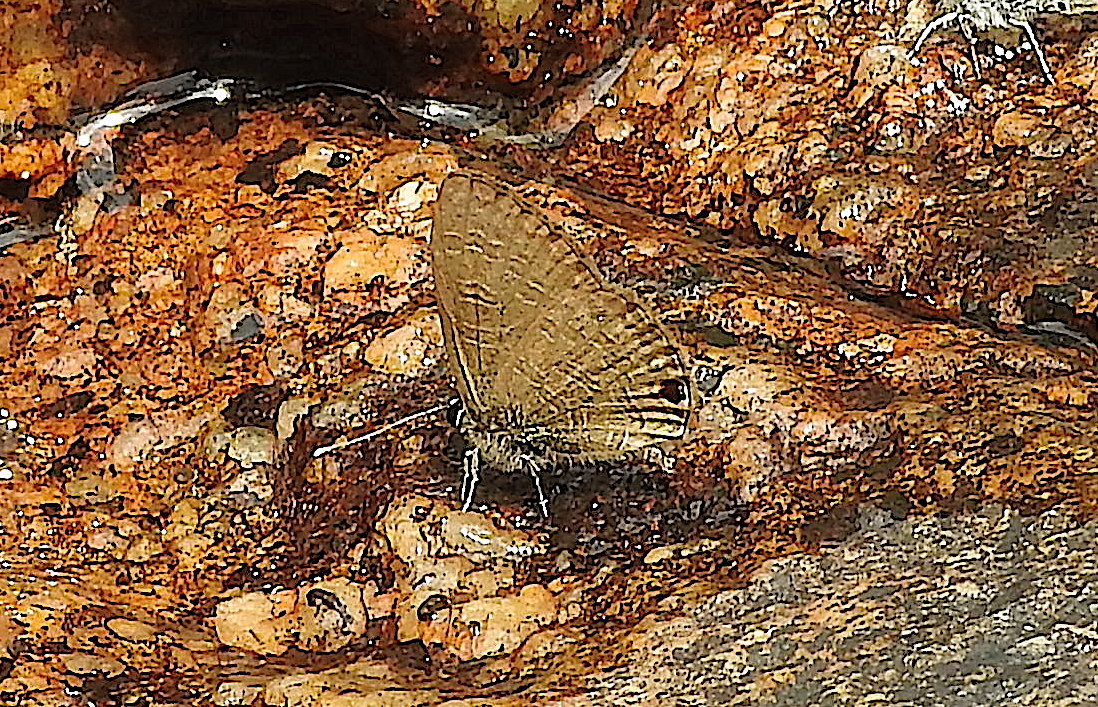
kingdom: Animalia
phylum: Arthropoda
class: Insecta
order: Lepidoptera
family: Lycaenidae
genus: Prosotas
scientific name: Prosotas nora
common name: Common line blue
